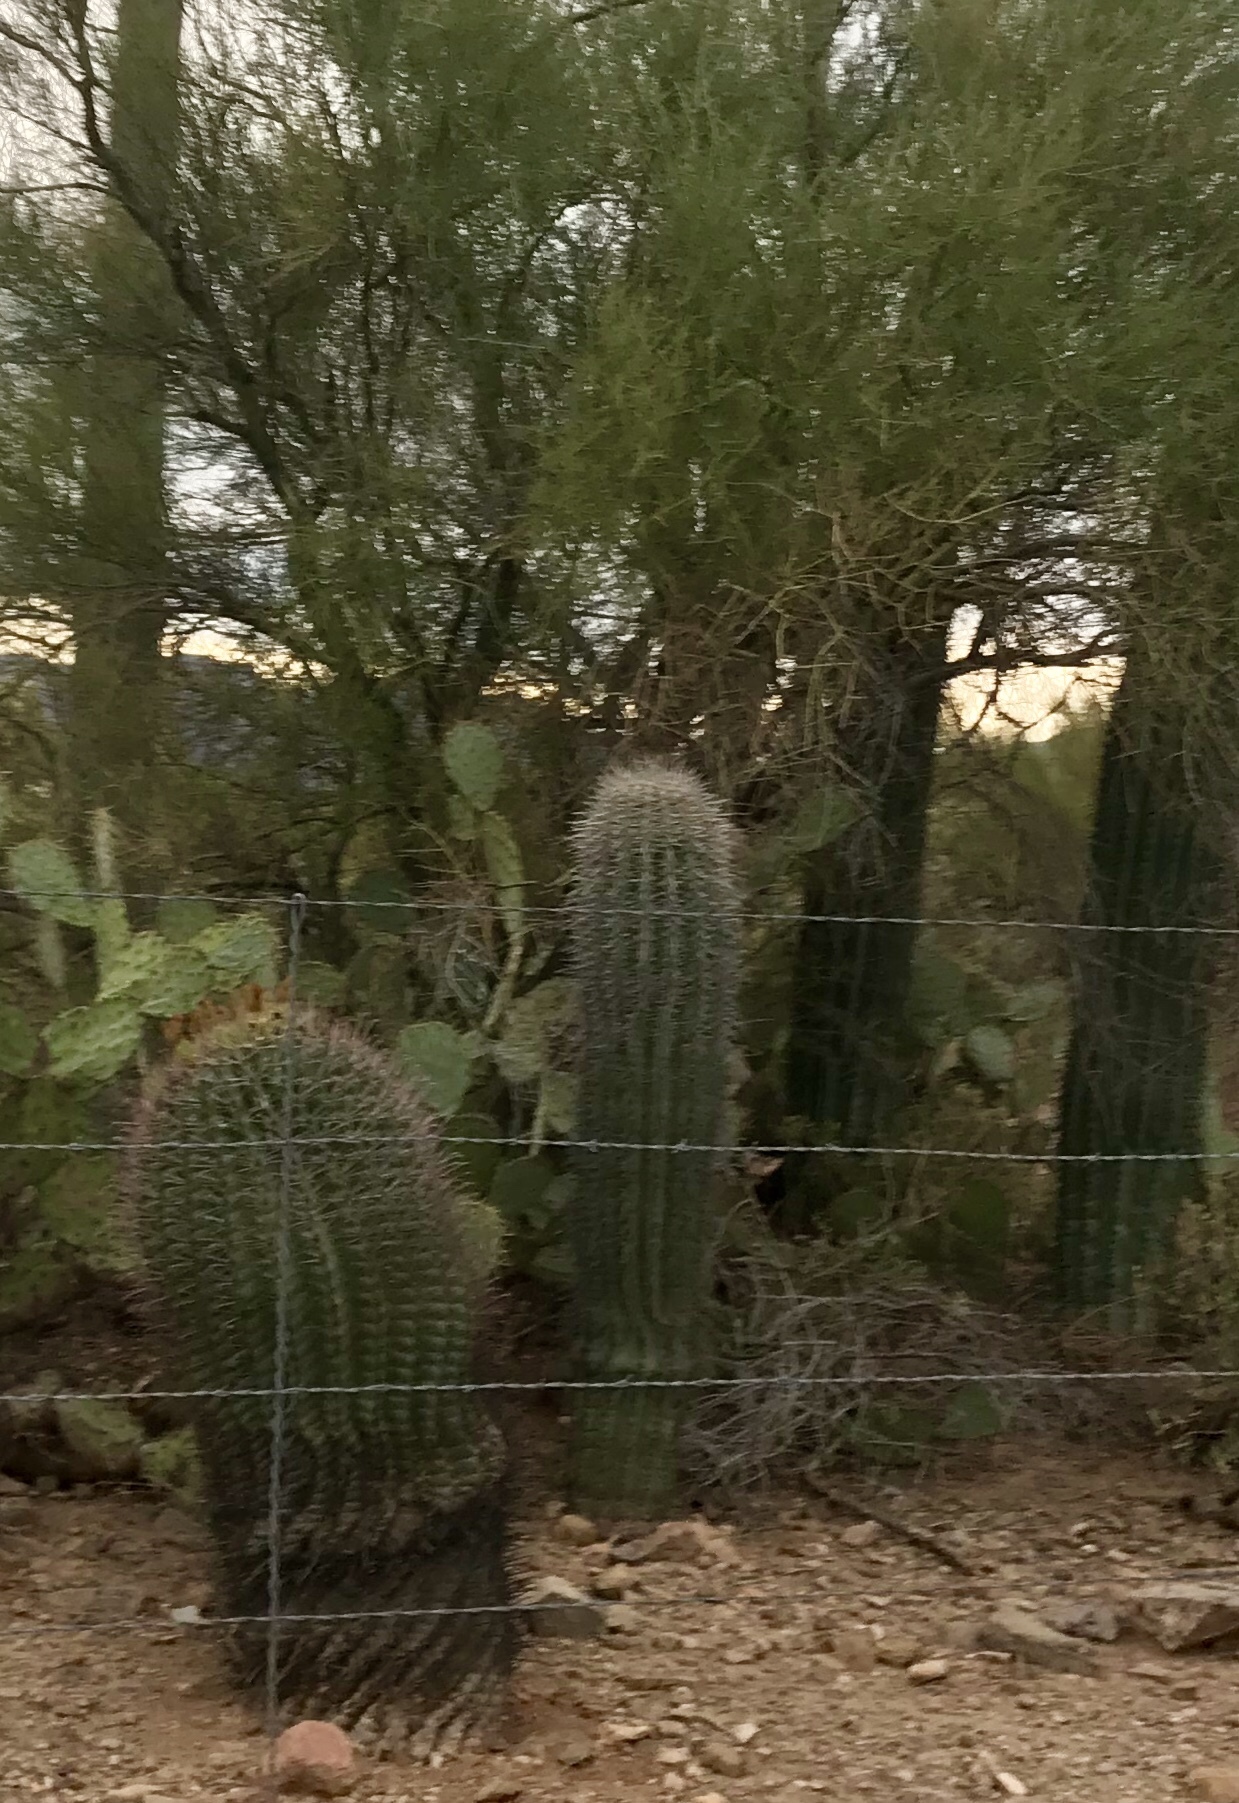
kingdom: Plantae
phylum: Tracheophyta
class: Magnoliopsida
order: Caryophyllales
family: Cactaceae
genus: Carnegiea
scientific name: Carnegiea gigantea
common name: Saguaro
